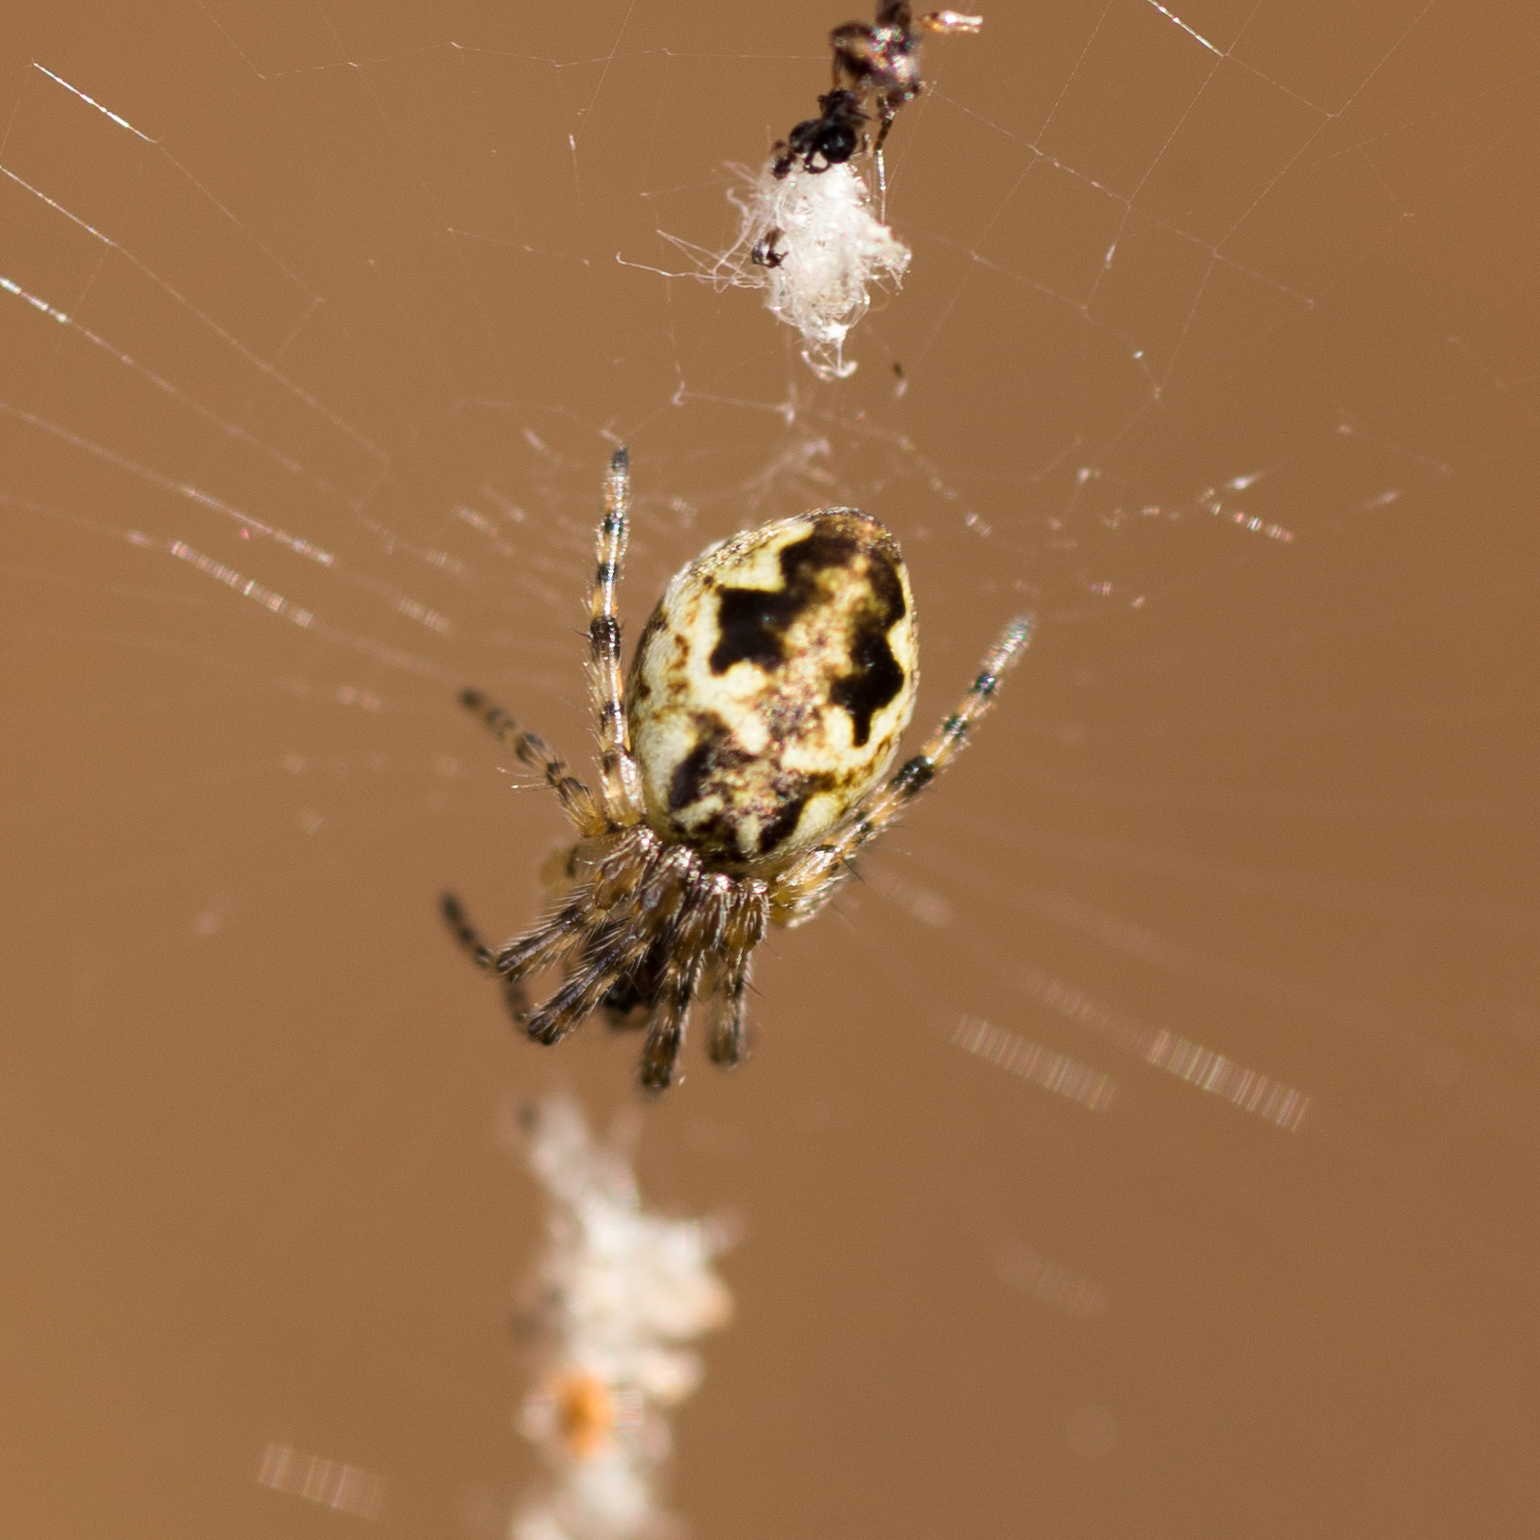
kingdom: Animalia
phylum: Arthropoda
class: Arachnida
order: Araneae
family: Araneidae
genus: Cyclosa
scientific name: Cyclosa conica
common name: Conical trashline orbweaver
